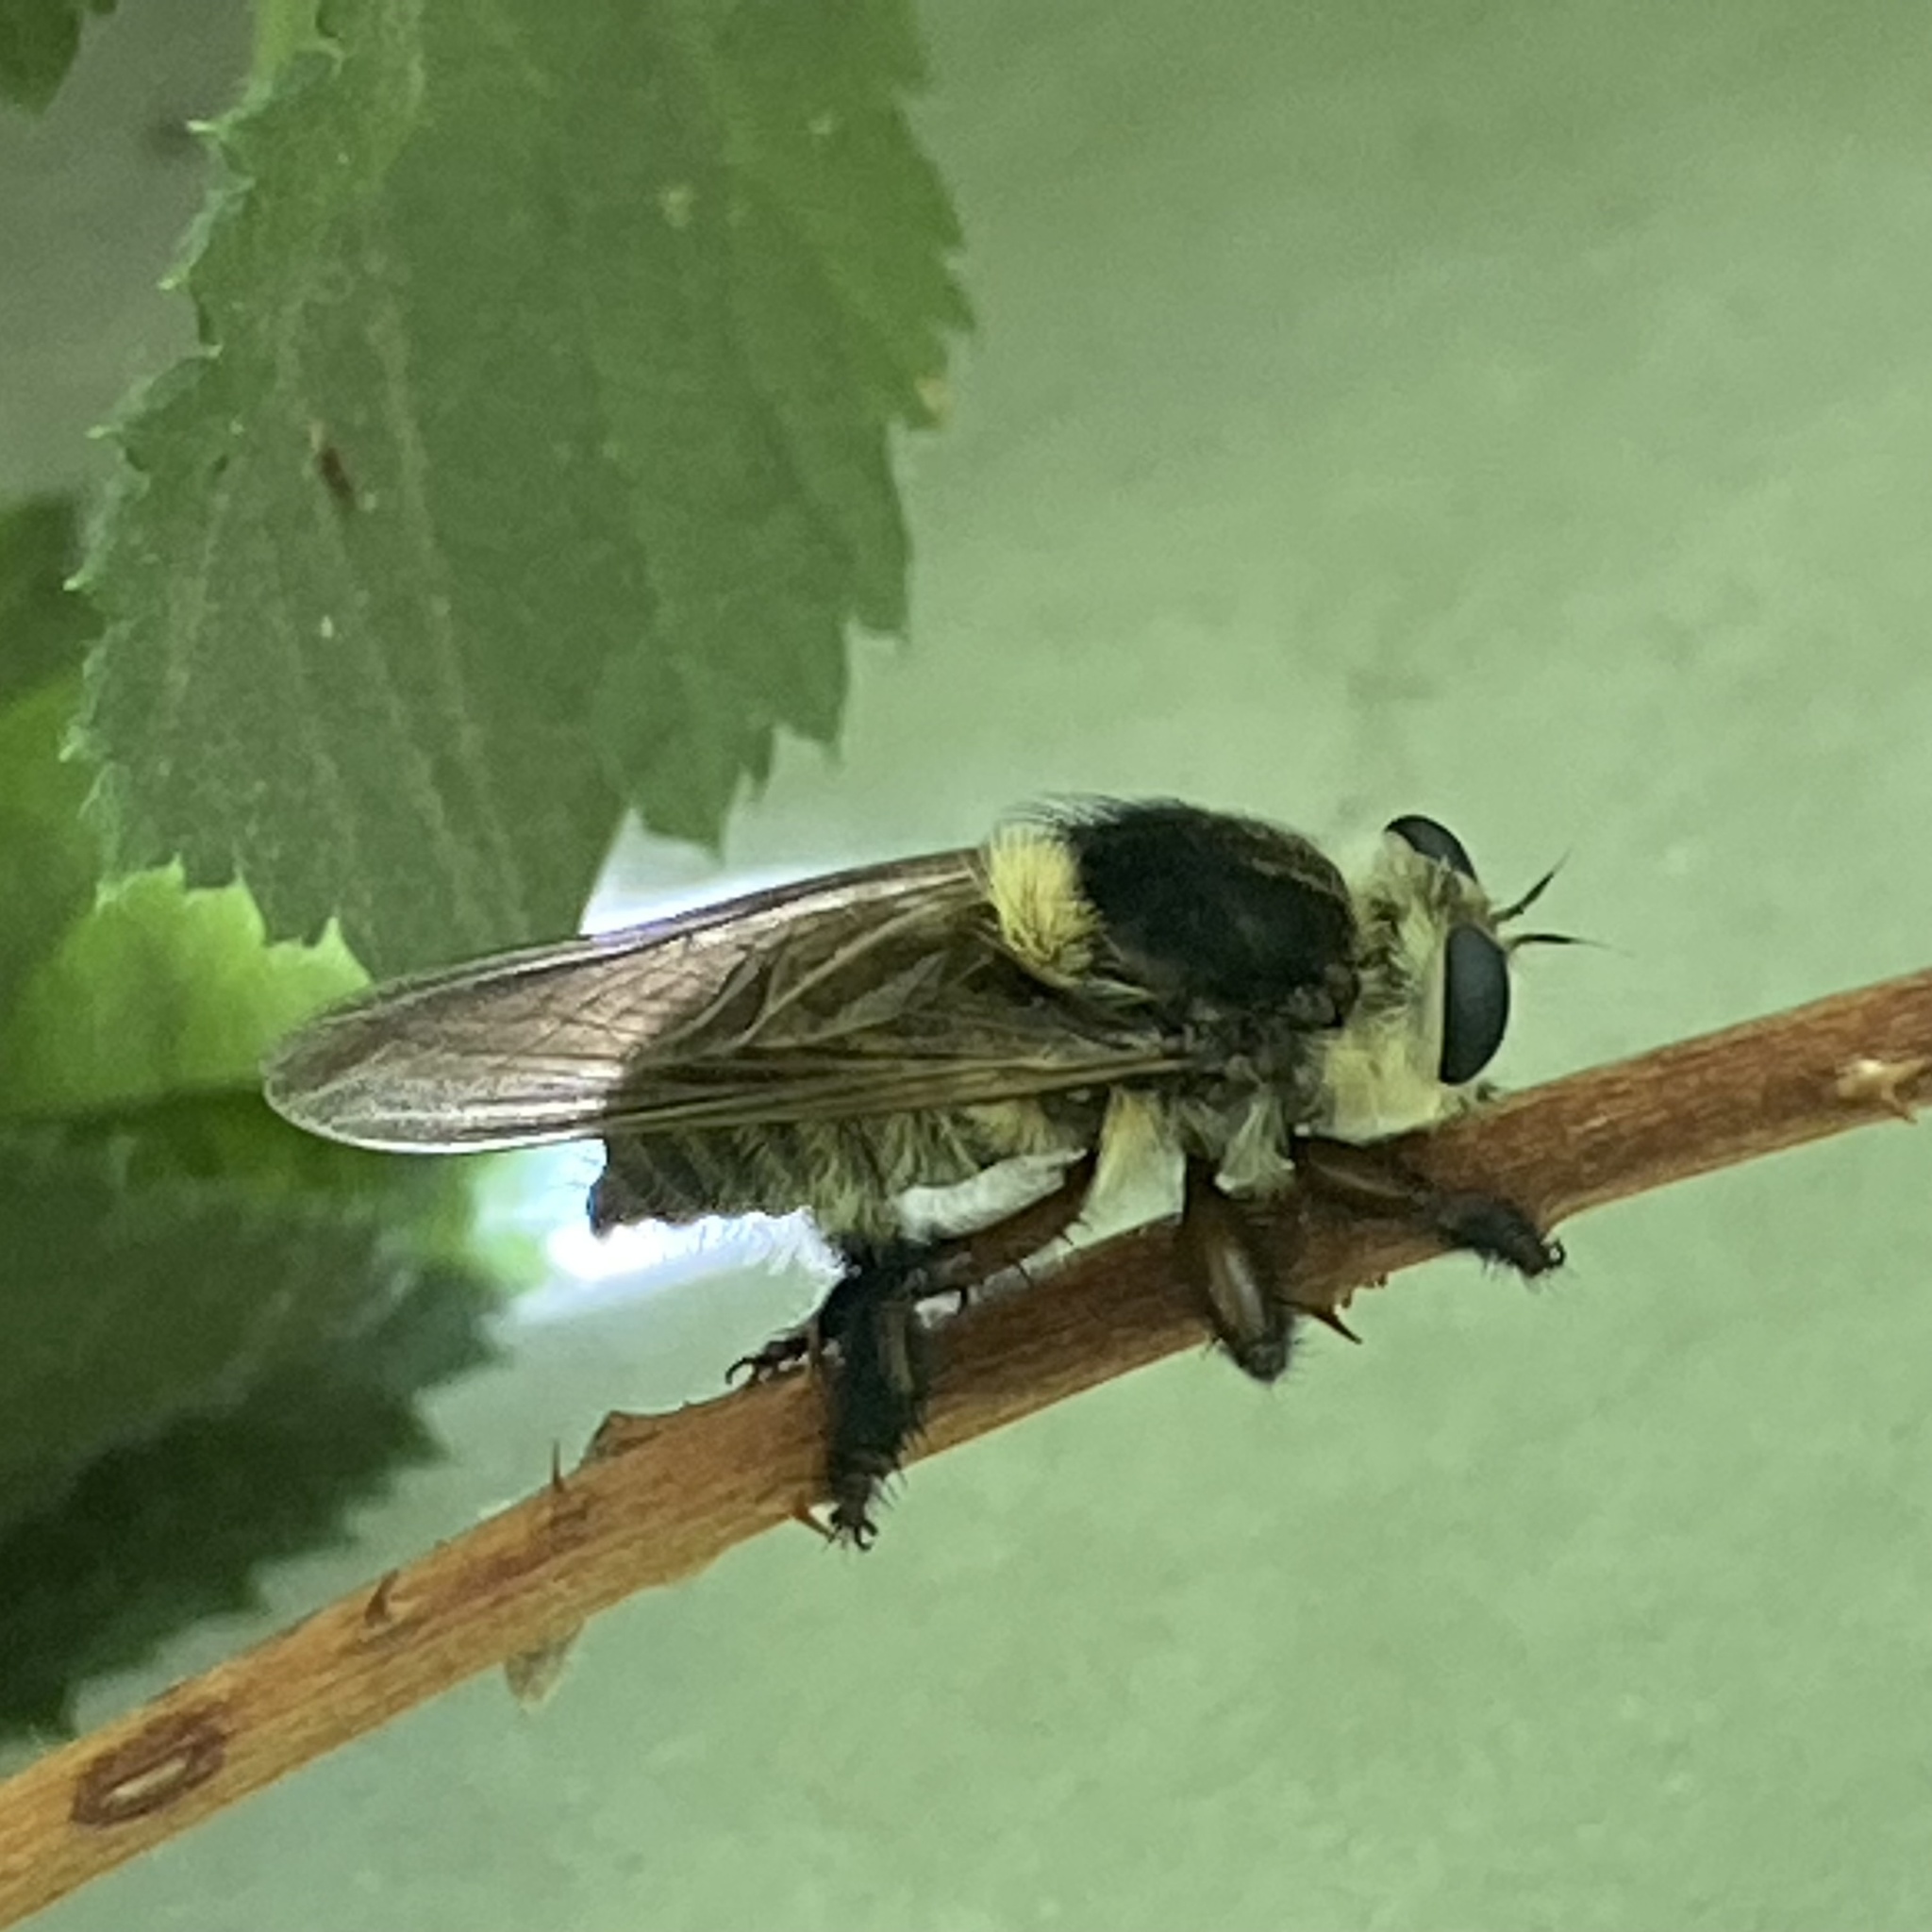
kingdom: Animalia
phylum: Arthropoda
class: Insecta
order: Diptera
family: Asilidae
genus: Mallophora
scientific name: Mallophora fautrix
